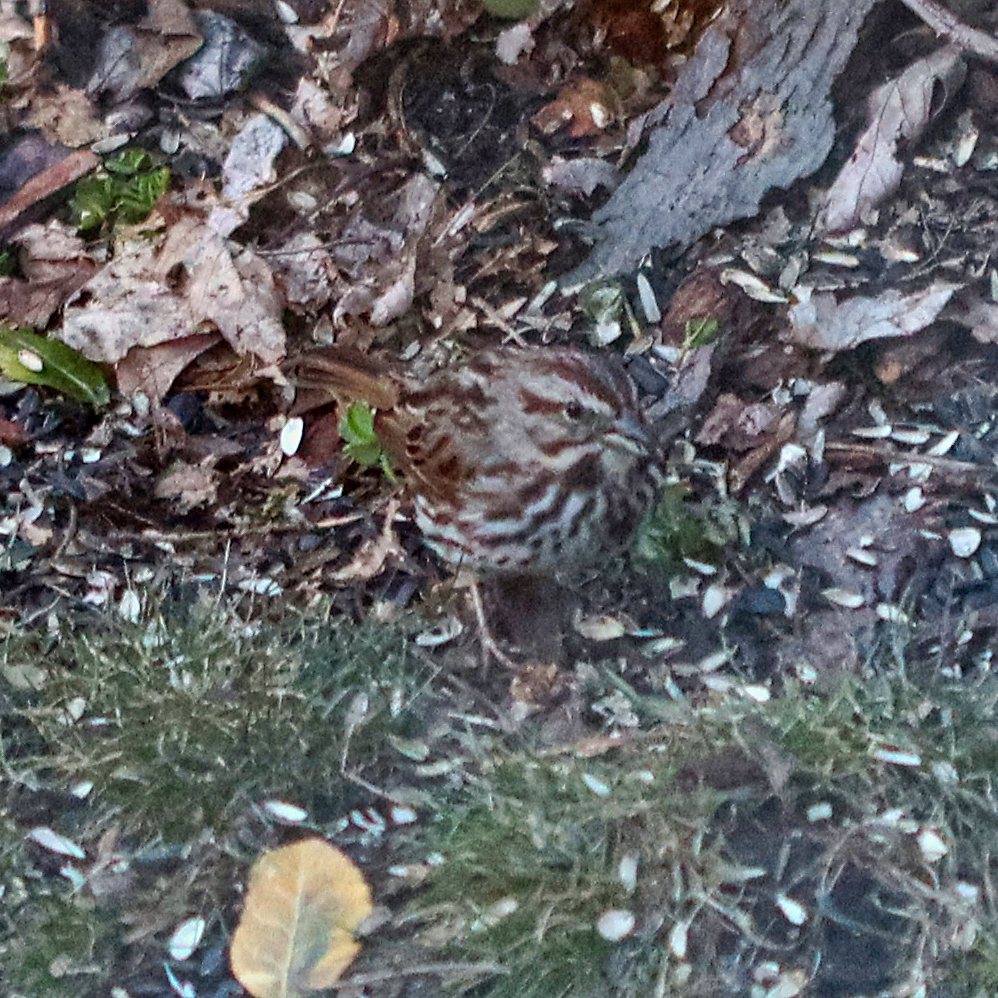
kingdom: Animalia
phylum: Chordata
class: Aves
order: Passeriformes
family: Passerellidae
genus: Melospiza
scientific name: Melospiza melodia
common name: Song sparrow
